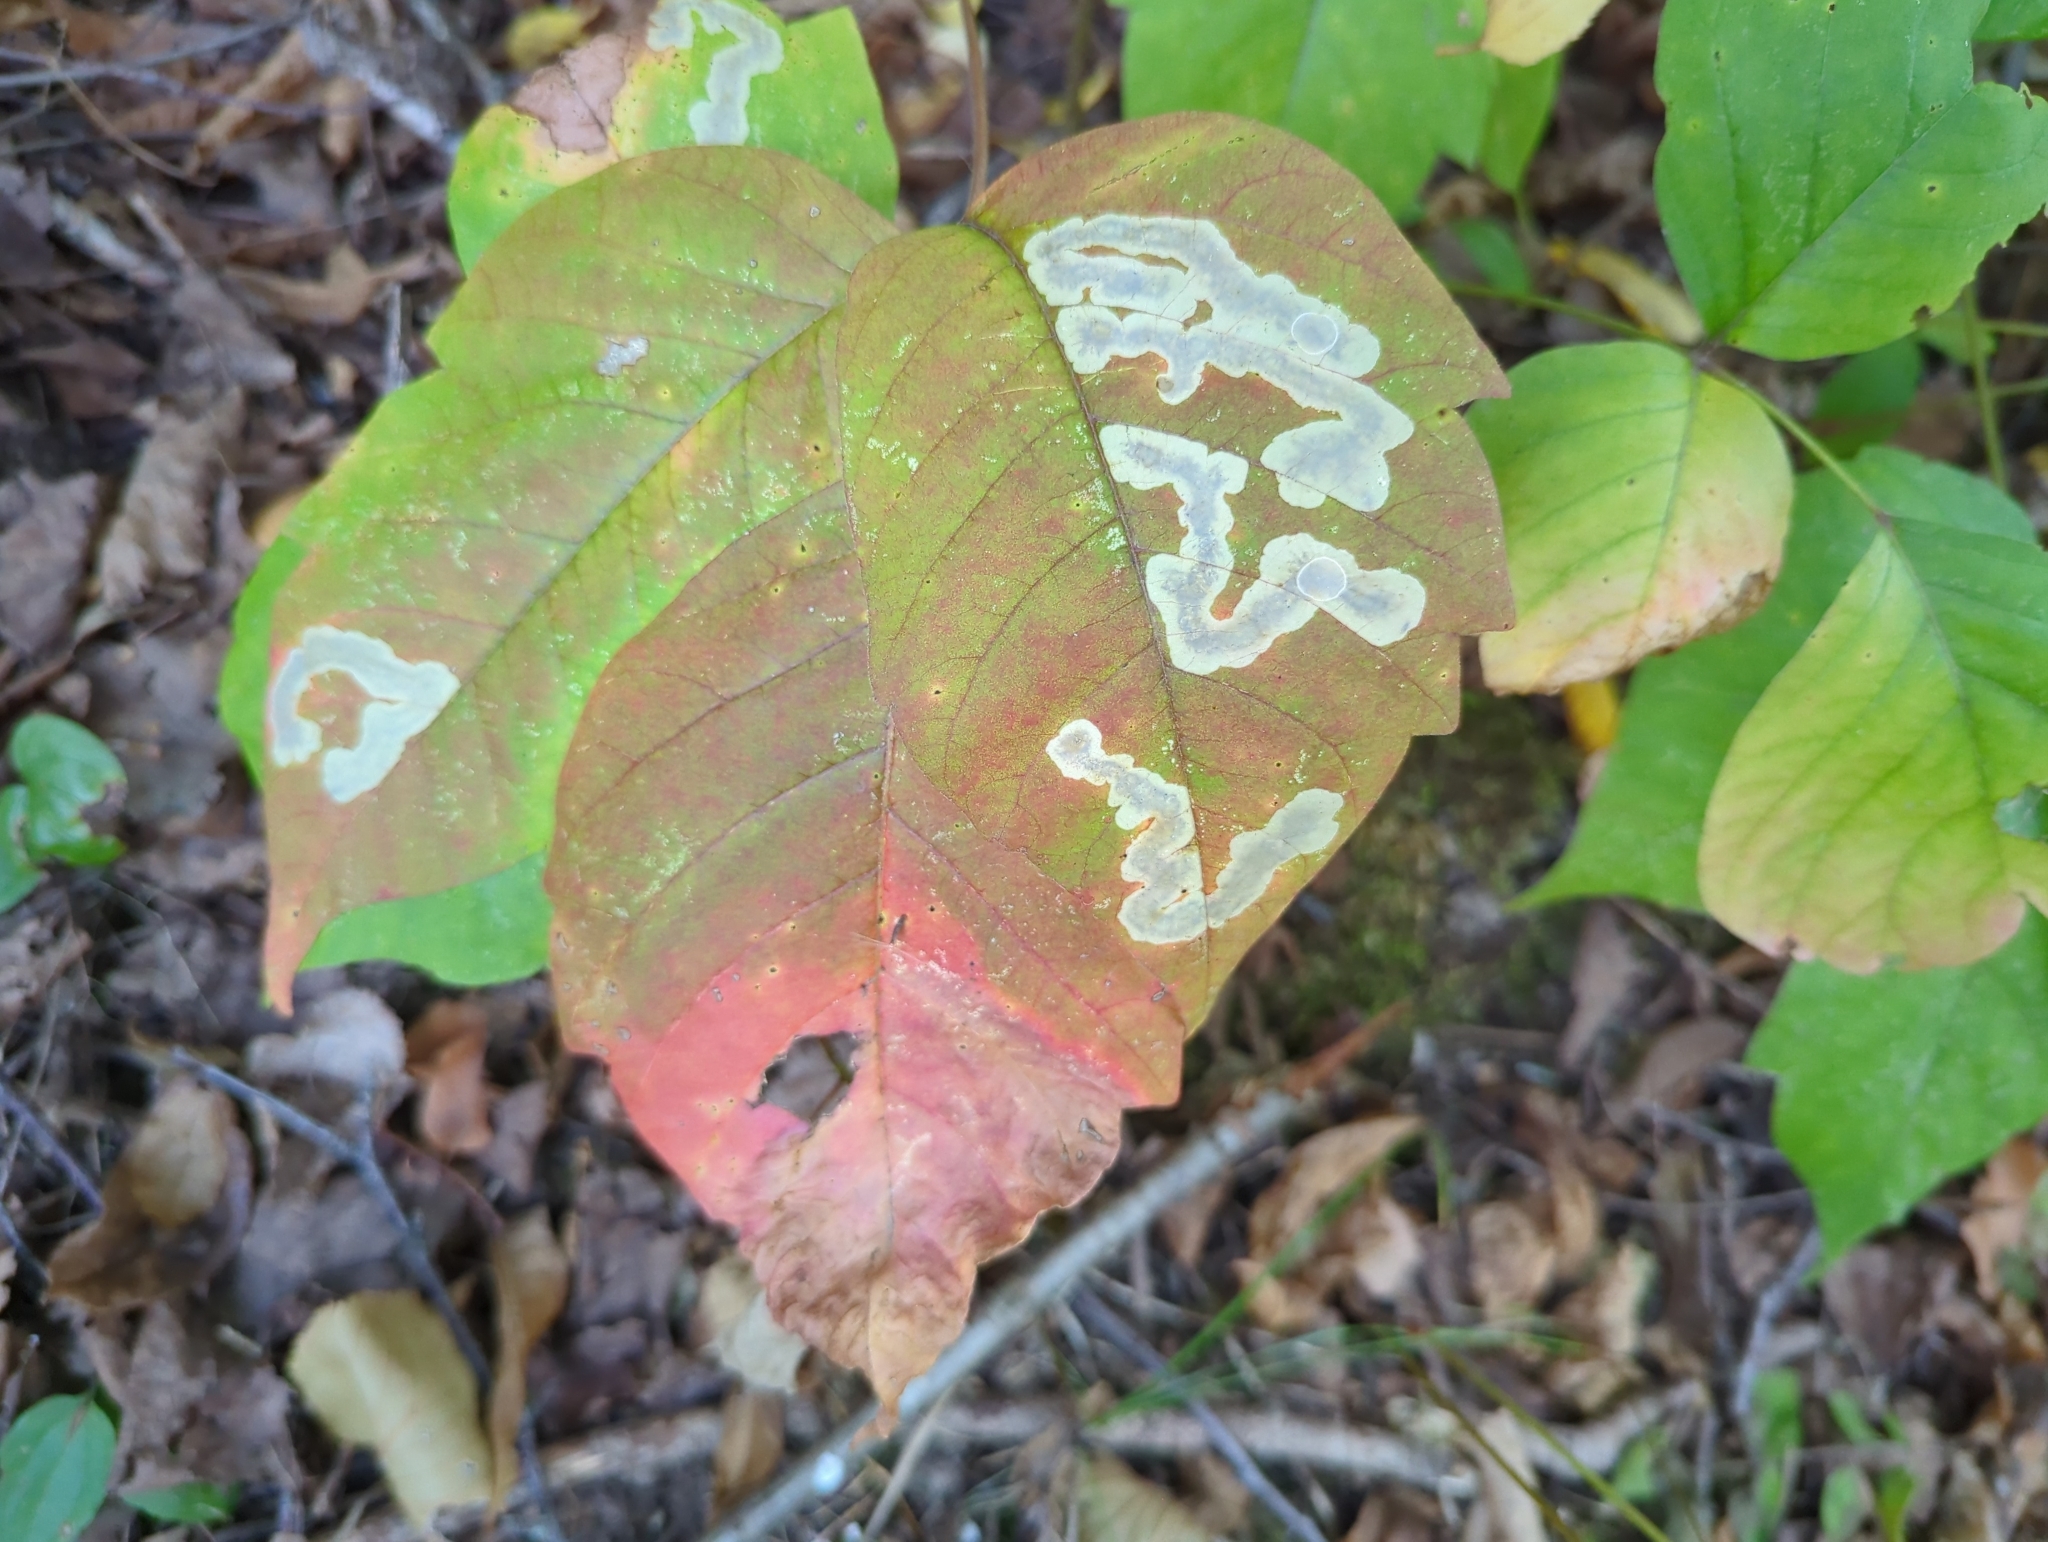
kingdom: Animalia
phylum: Arthropoda
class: Insecta
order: Lepidoptera
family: Gracillariidae
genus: Cameraria
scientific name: Cameraria guttifinitella
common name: Poison ivy leaf-miner moth
